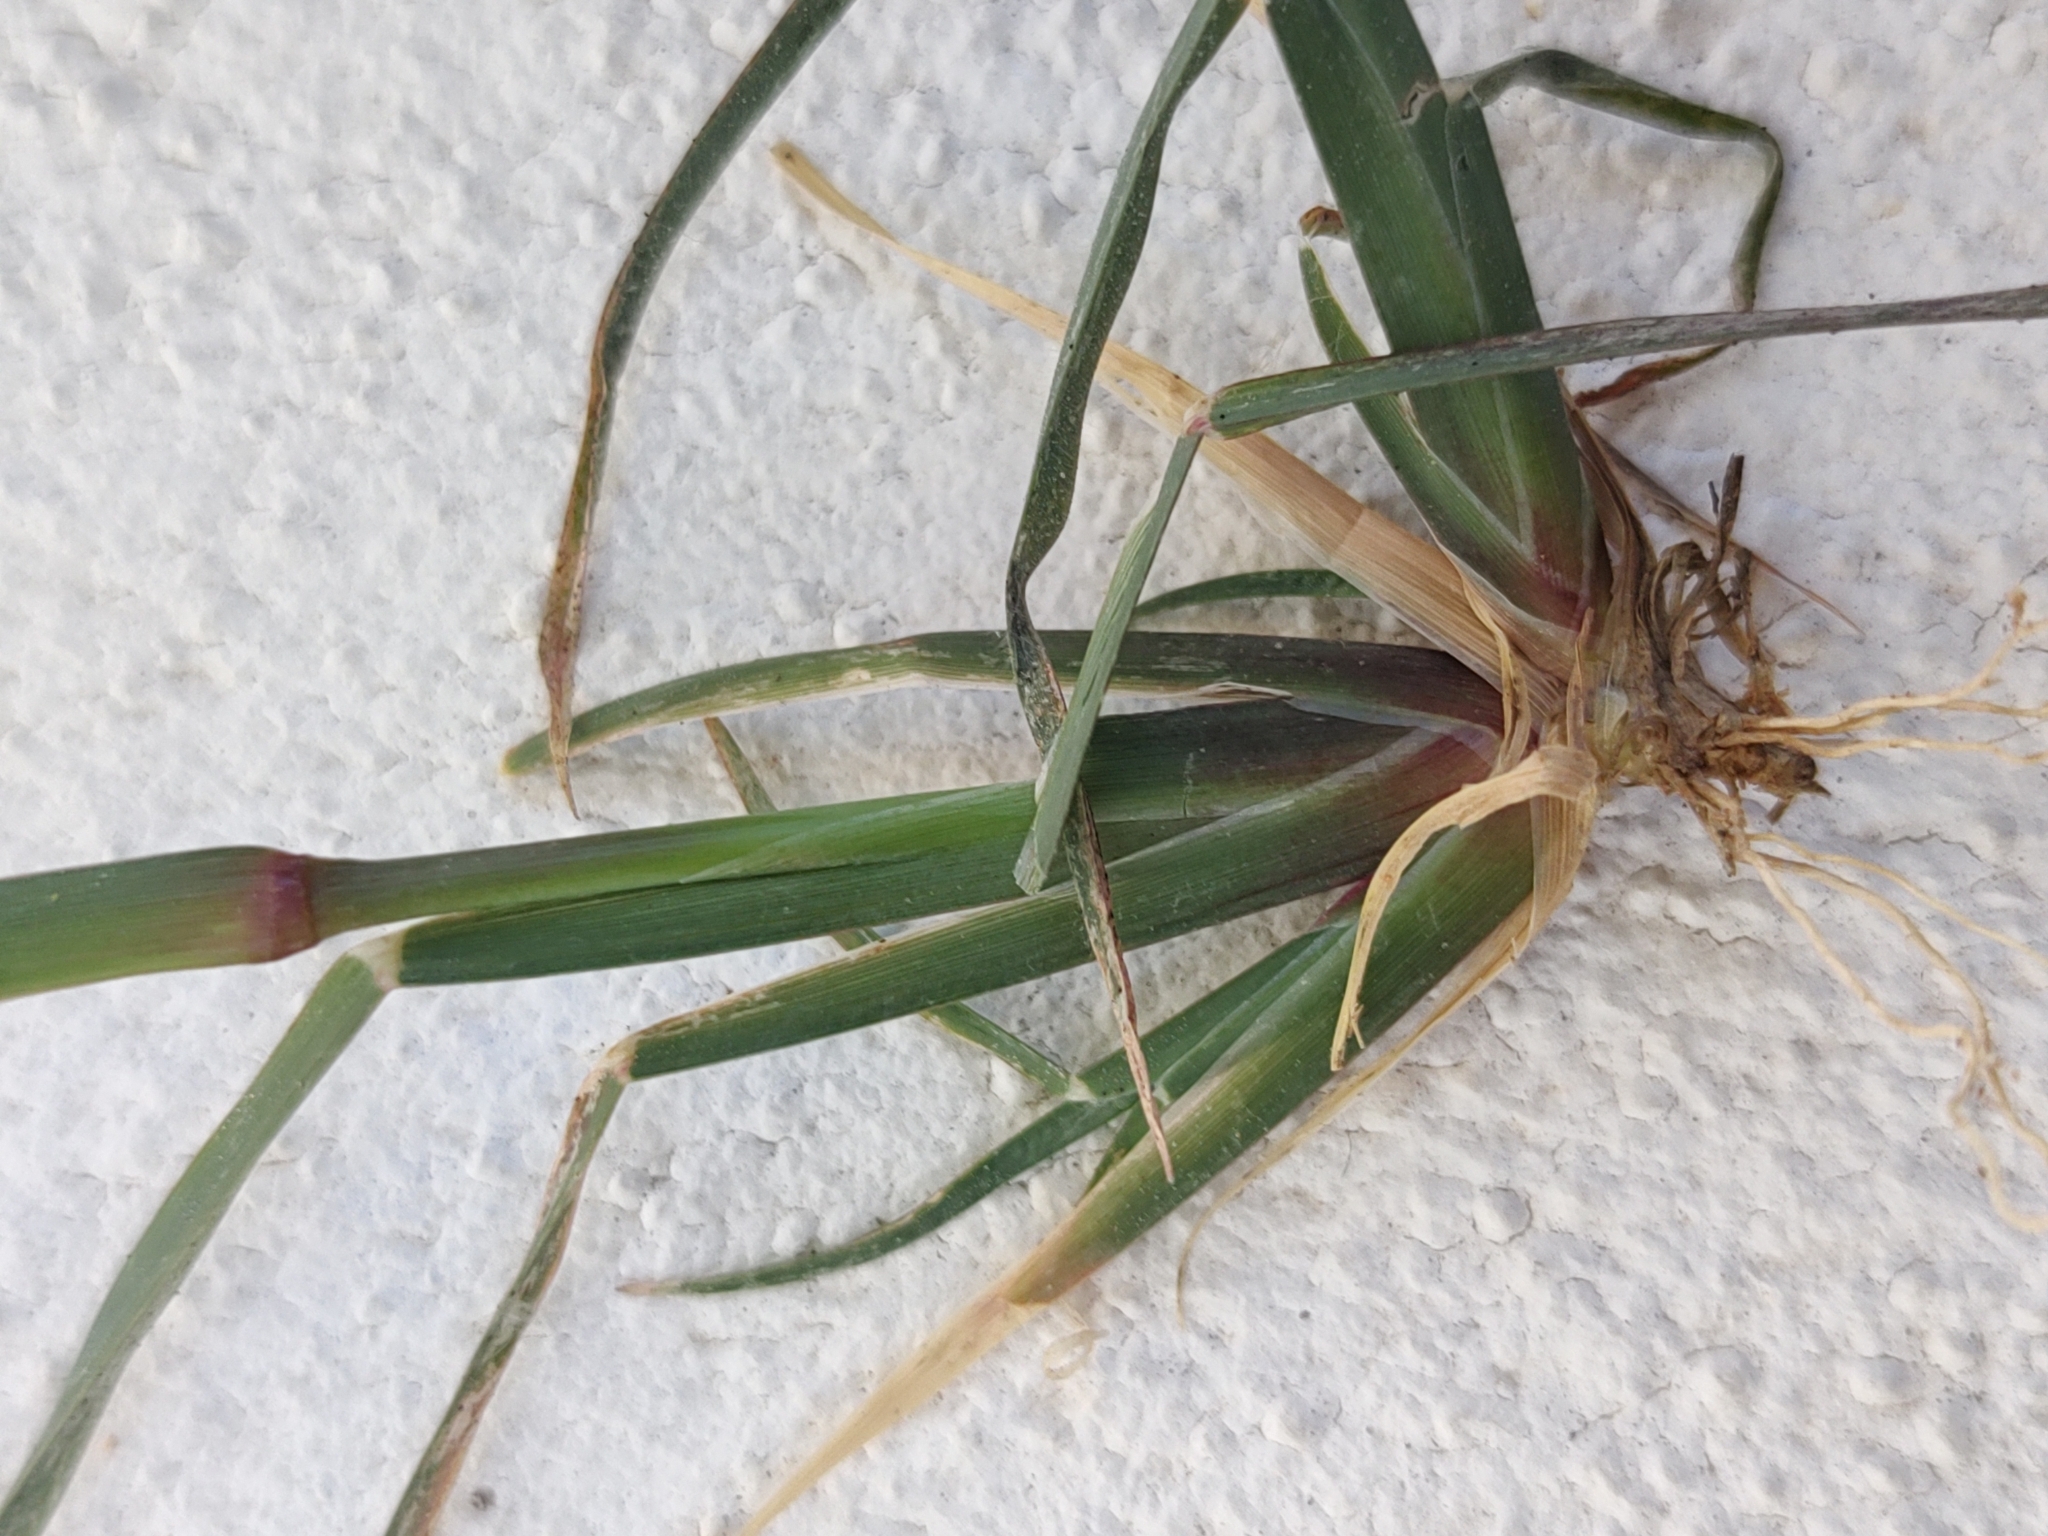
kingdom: Plantae
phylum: Tracheophyta
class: Liliopsida
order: Poales
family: Poaceae
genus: Chloris
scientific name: Chloris barbata
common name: Swollen fingergrass
